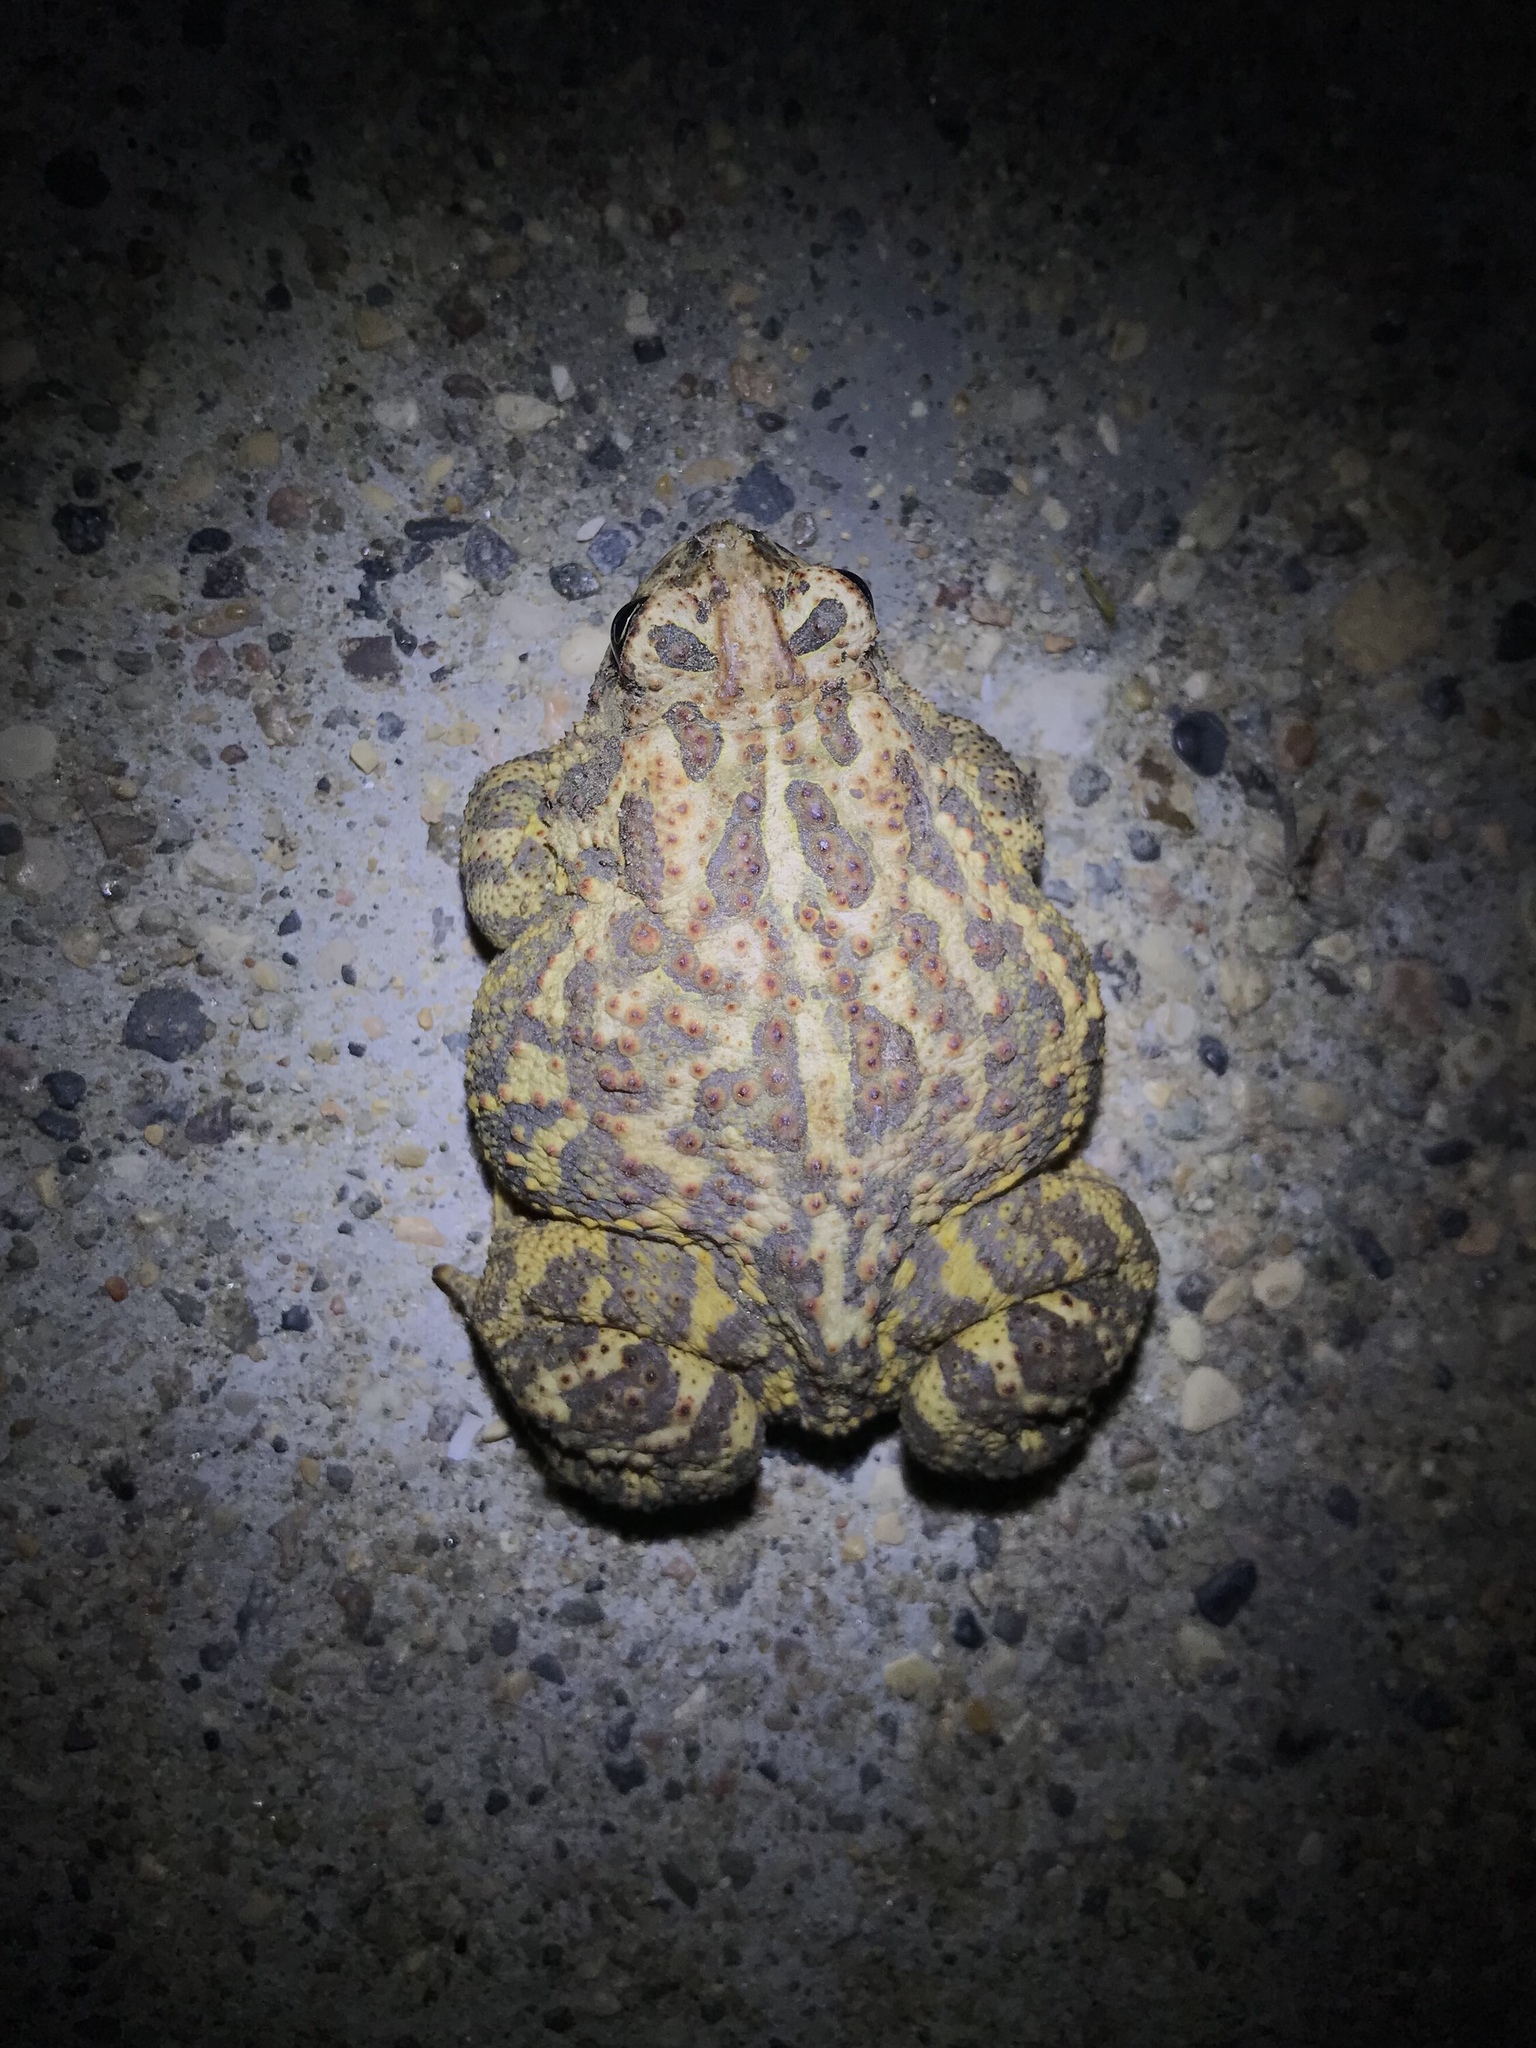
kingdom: Animalia
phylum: Chordata
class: Amphibia
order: Anura
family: Bufonidae
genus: Anaxyrus
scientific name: Anaxyrus hemiophrys
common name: Canadian toad
